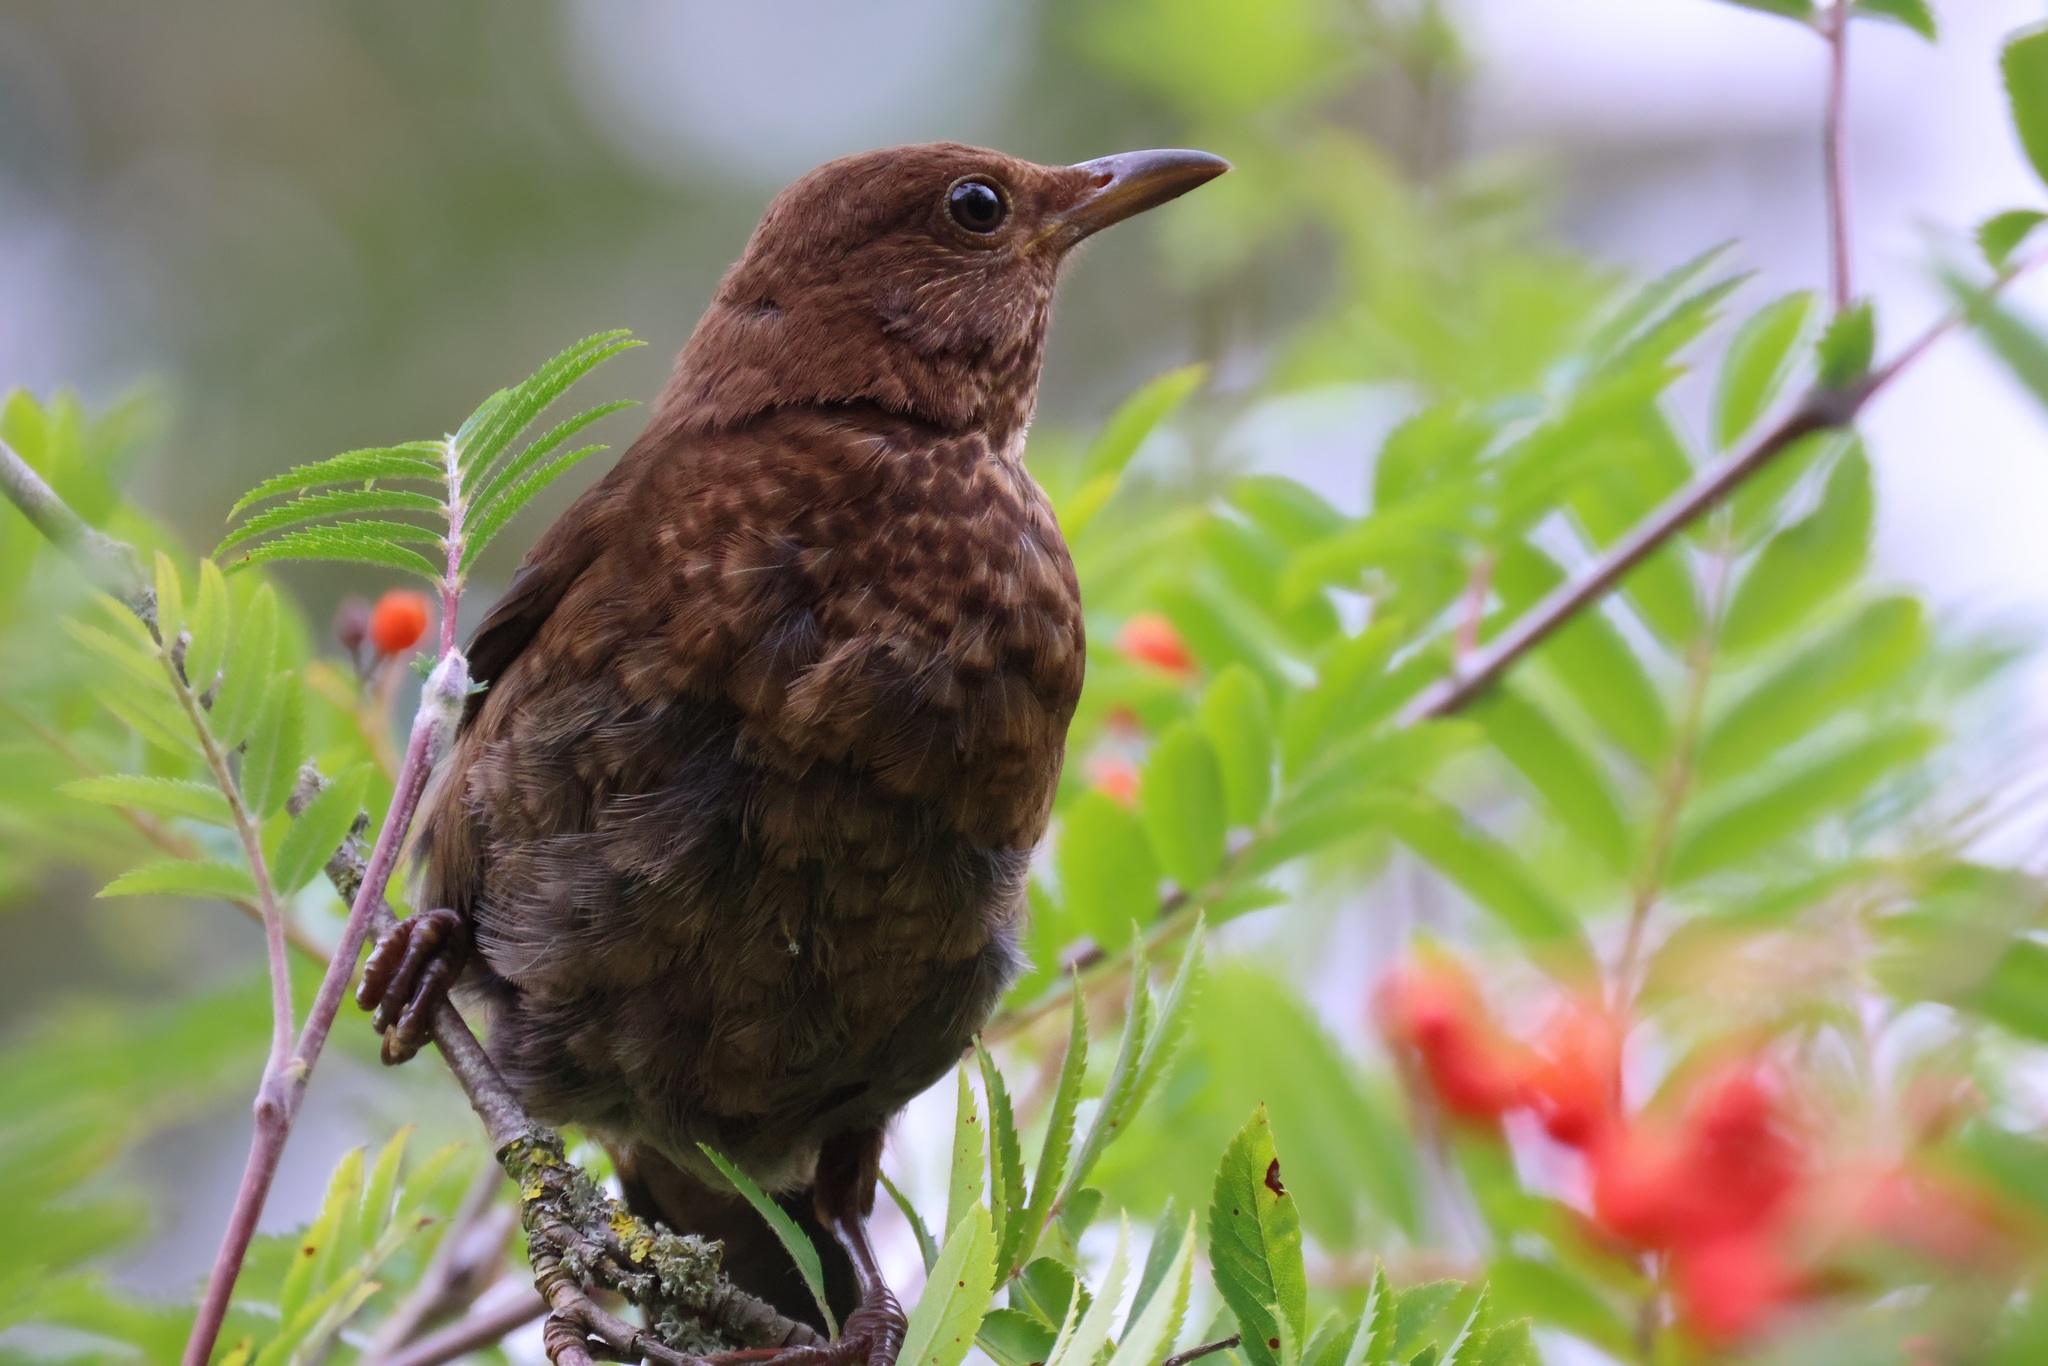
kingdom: Animalia
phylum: Chordata
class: Aves
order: Passeriformes
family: Turdidae
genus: Turdus
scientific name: Turdus merula
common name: Common blackbird
